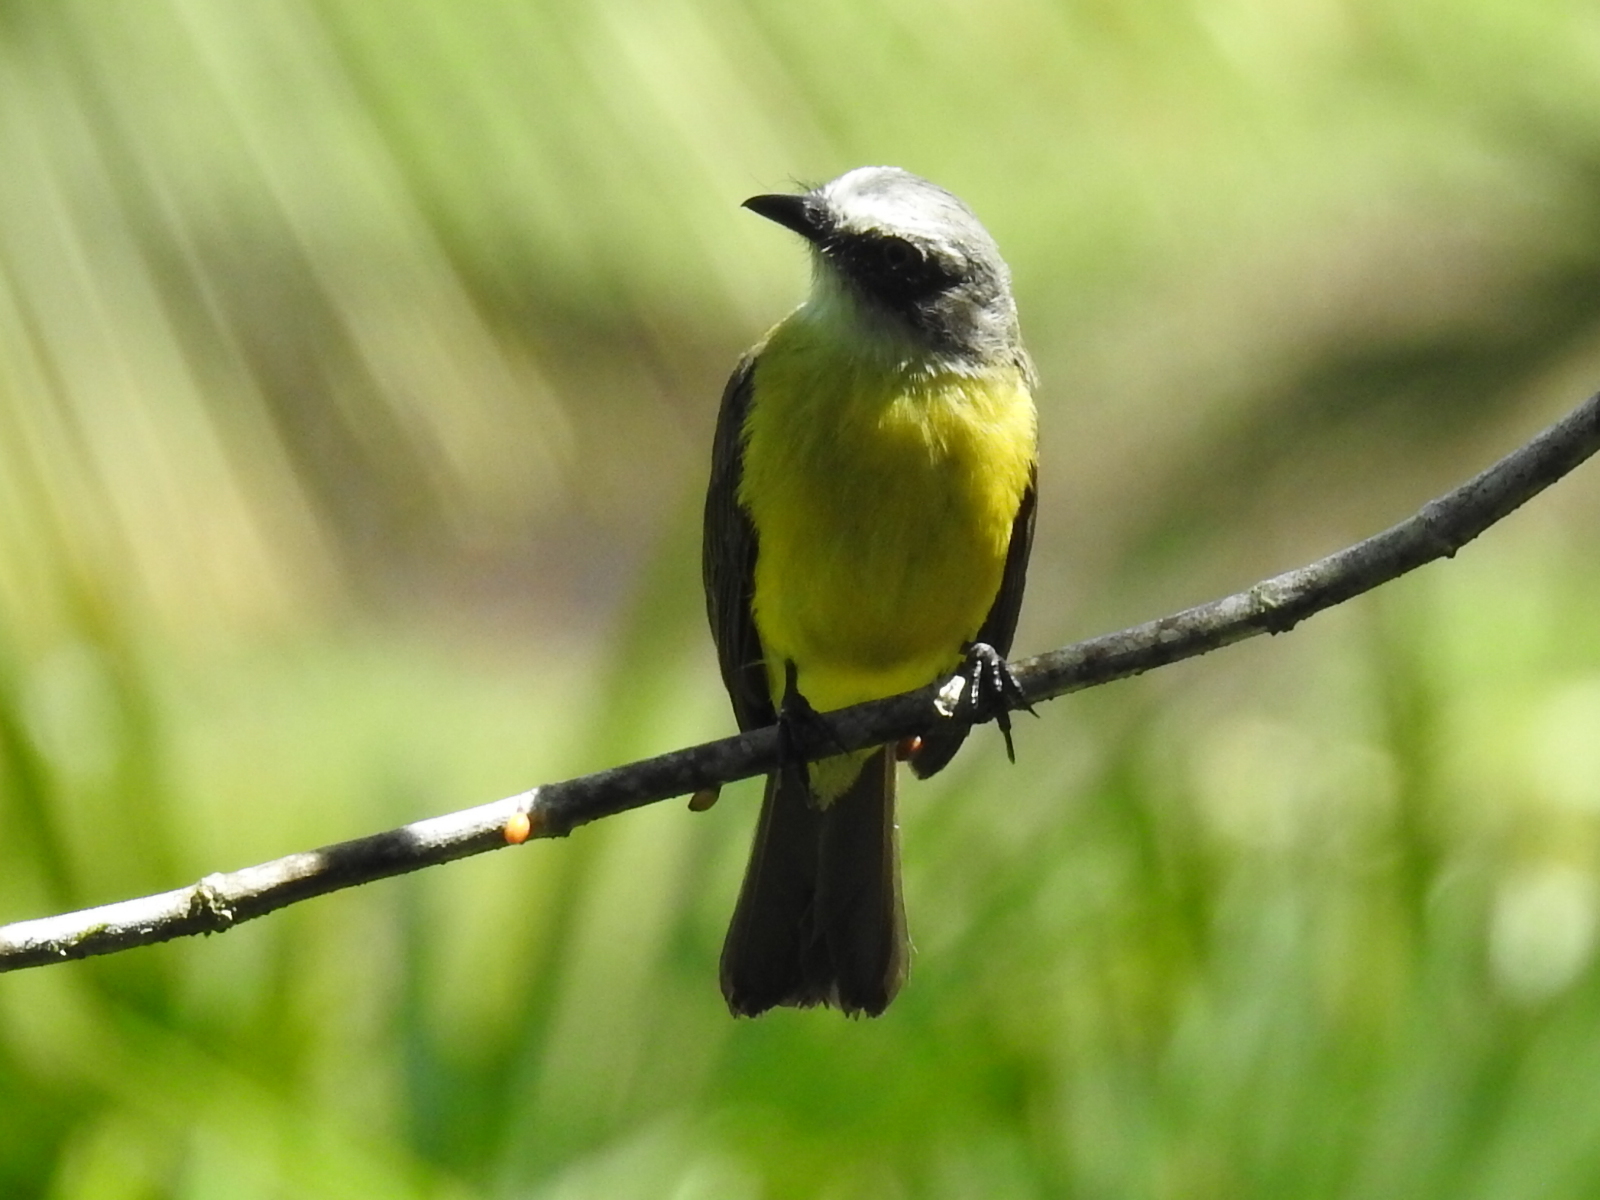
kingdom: Animalia
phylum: Chordata
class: Aves
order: Passeriformes
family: Tyrannidae
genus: Myiozetetes
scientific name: Myiozetetes granadensis
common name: Gray-capped flycatcher
